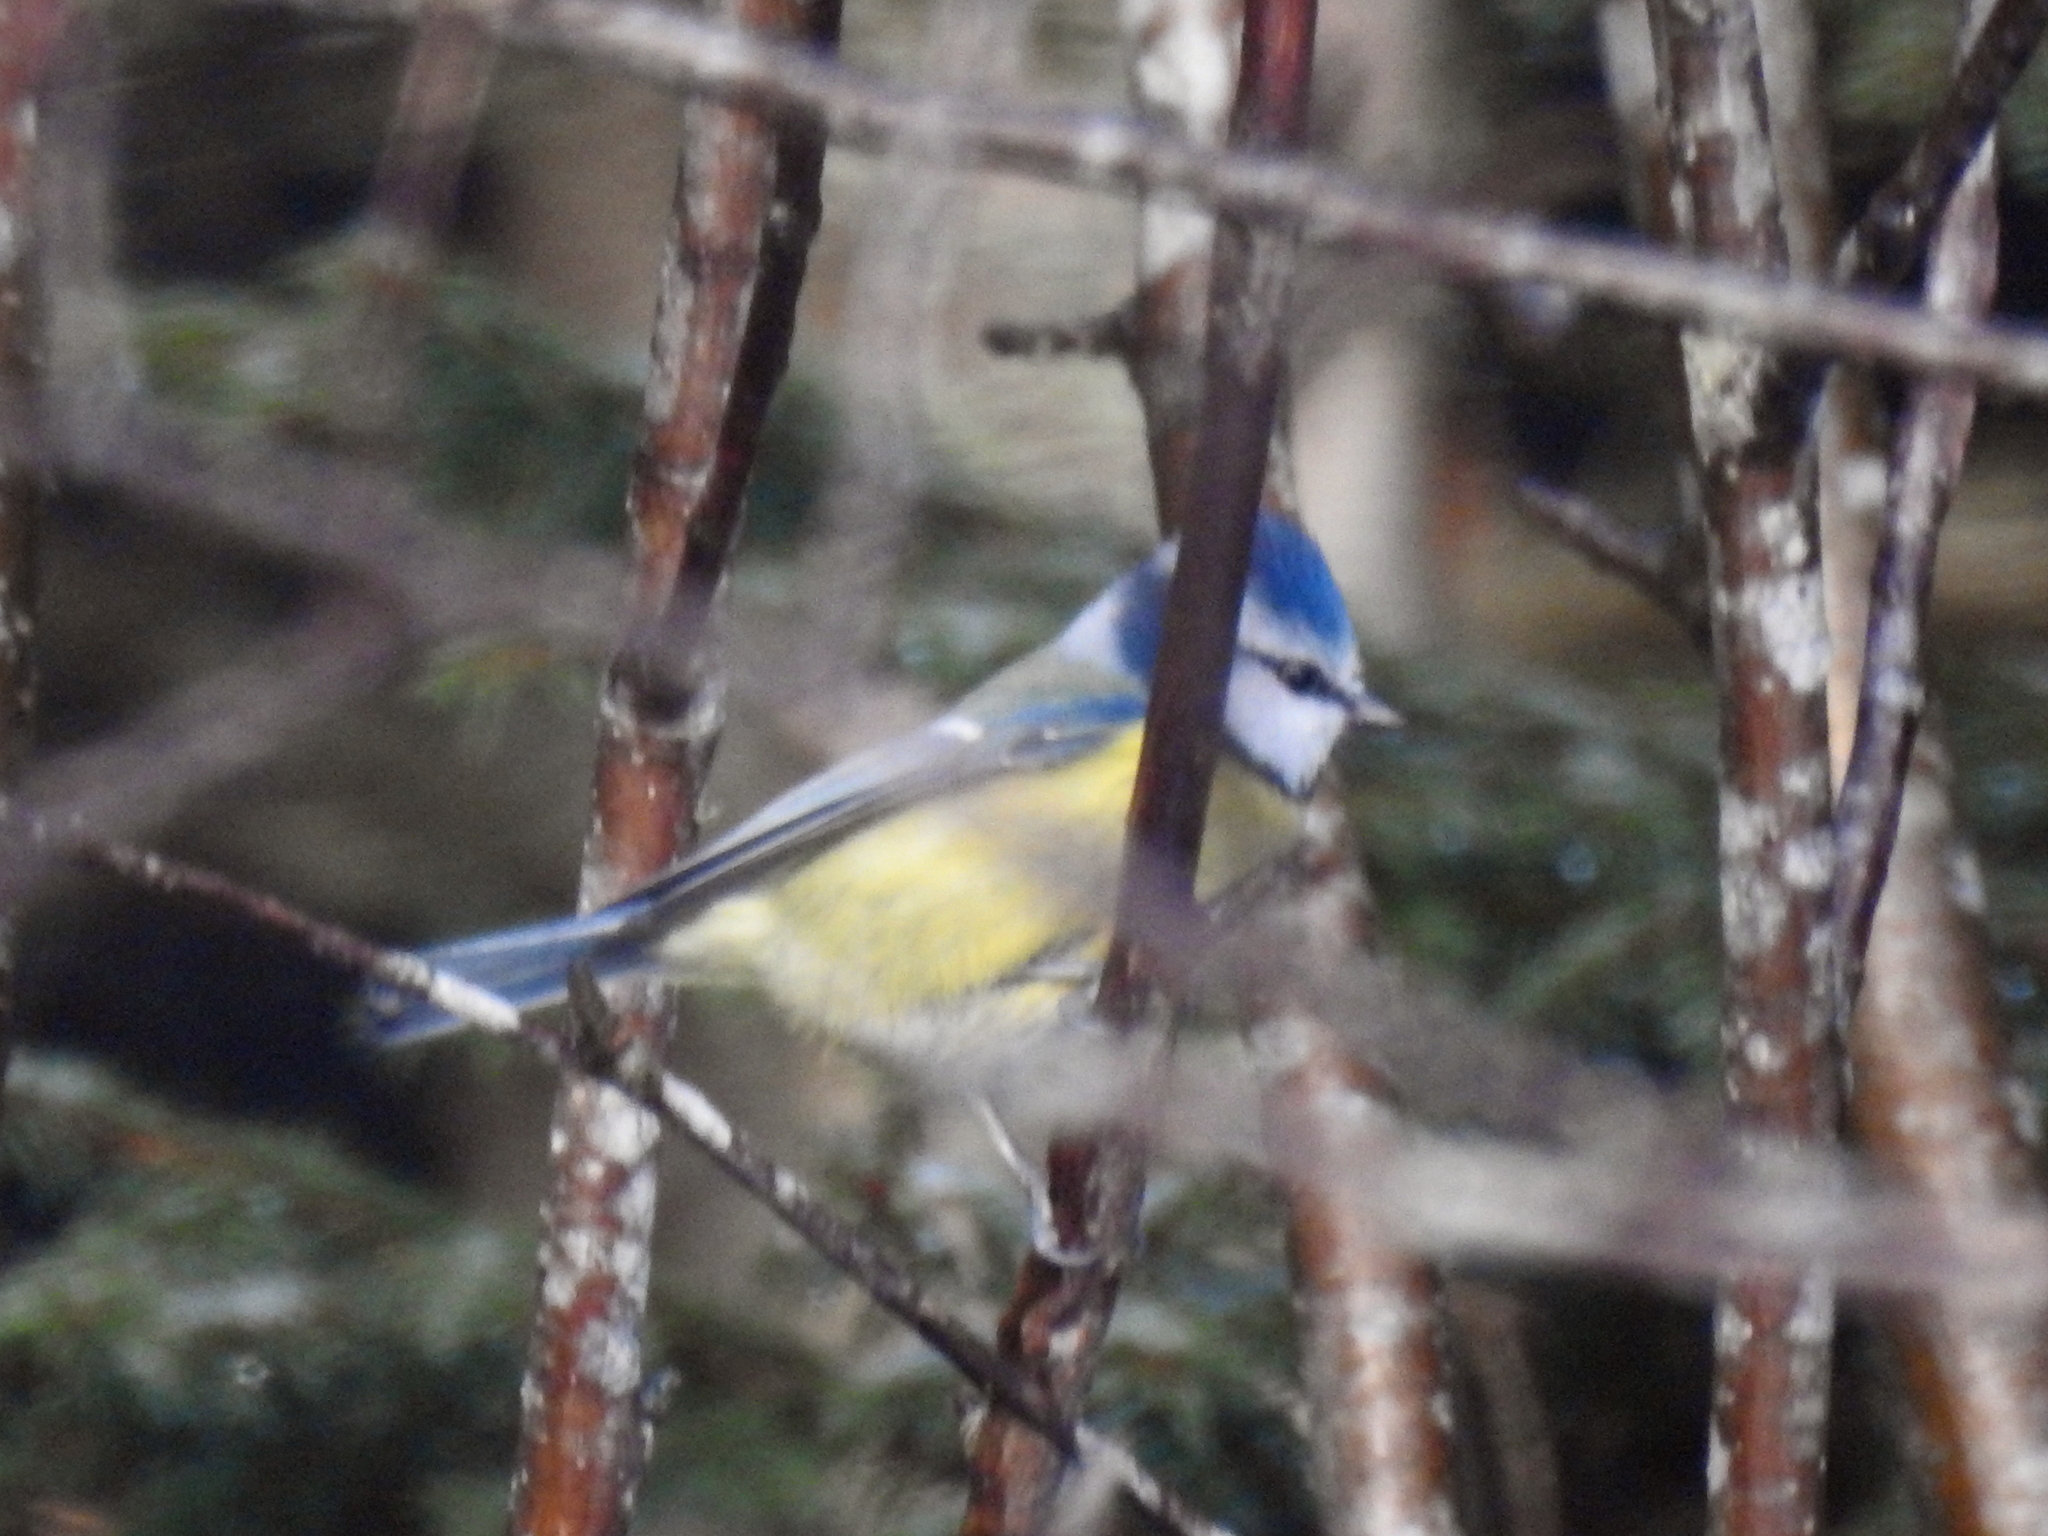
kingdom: Animalia
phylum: Chordata
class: Aves
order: Passeriformes
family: Paridae
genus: Cyanistes
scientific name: Cyanistes caeruleus
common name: Eurasian blue tit
